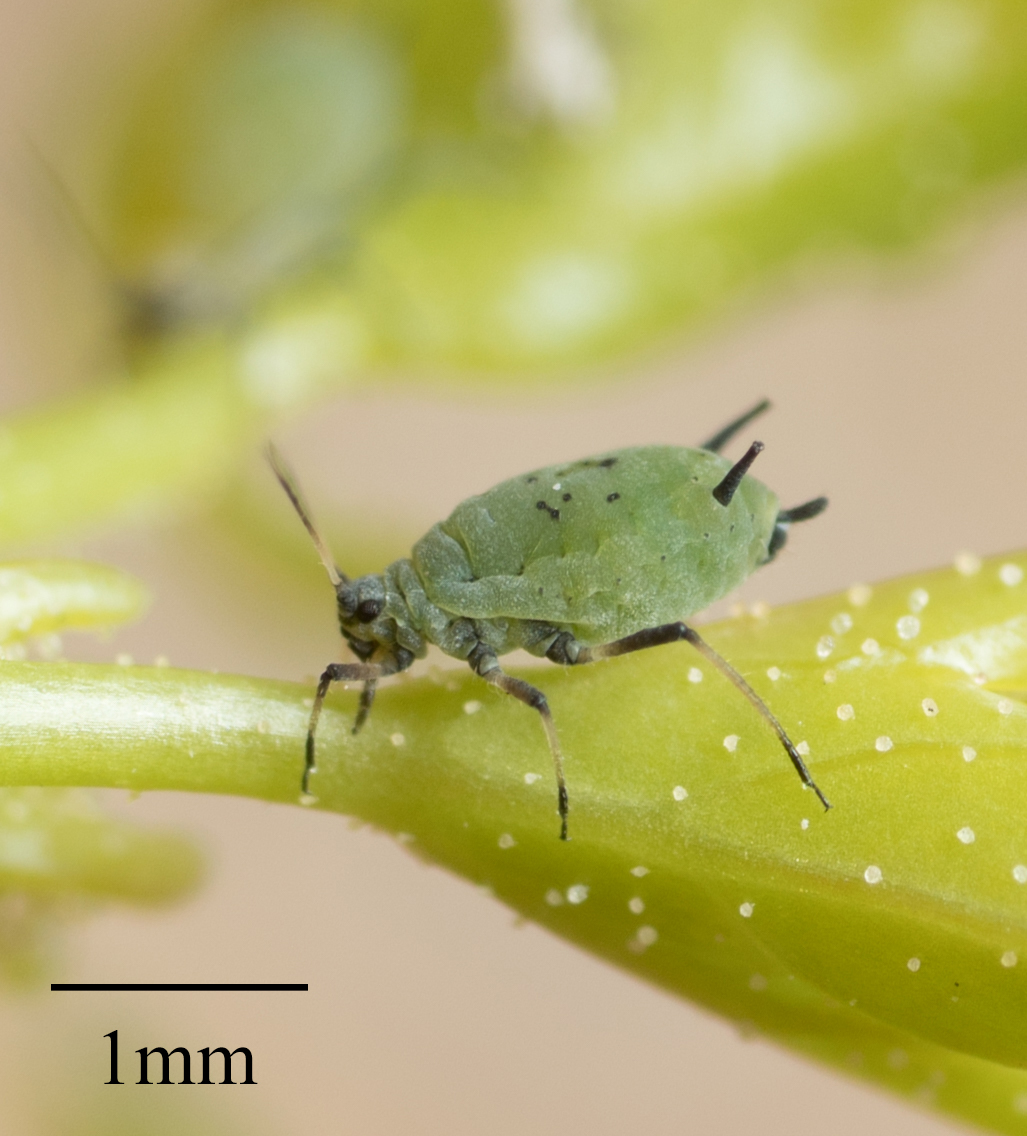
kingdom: Animalia
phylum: Arthropoda
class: Insecta
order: Hemiptera
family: Aphididae
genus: Aphis
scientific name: Aphis spiraecola
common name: Spirea aphid
